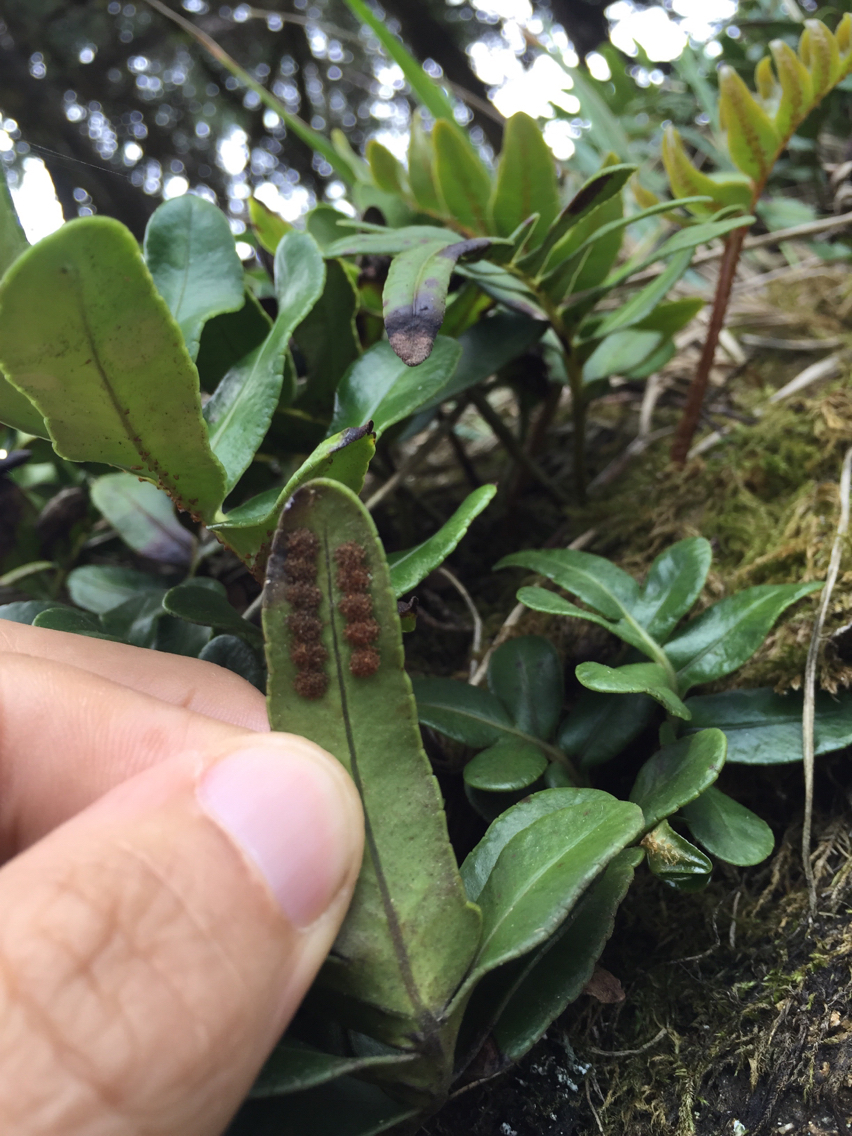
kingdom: Plantae
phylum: Tracheophyta
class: Polypodiopsida
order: Polypodiales
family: Polypodiaceae
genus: Polypodium
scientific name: Polypodium scouleri
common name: Scouler's polypody
